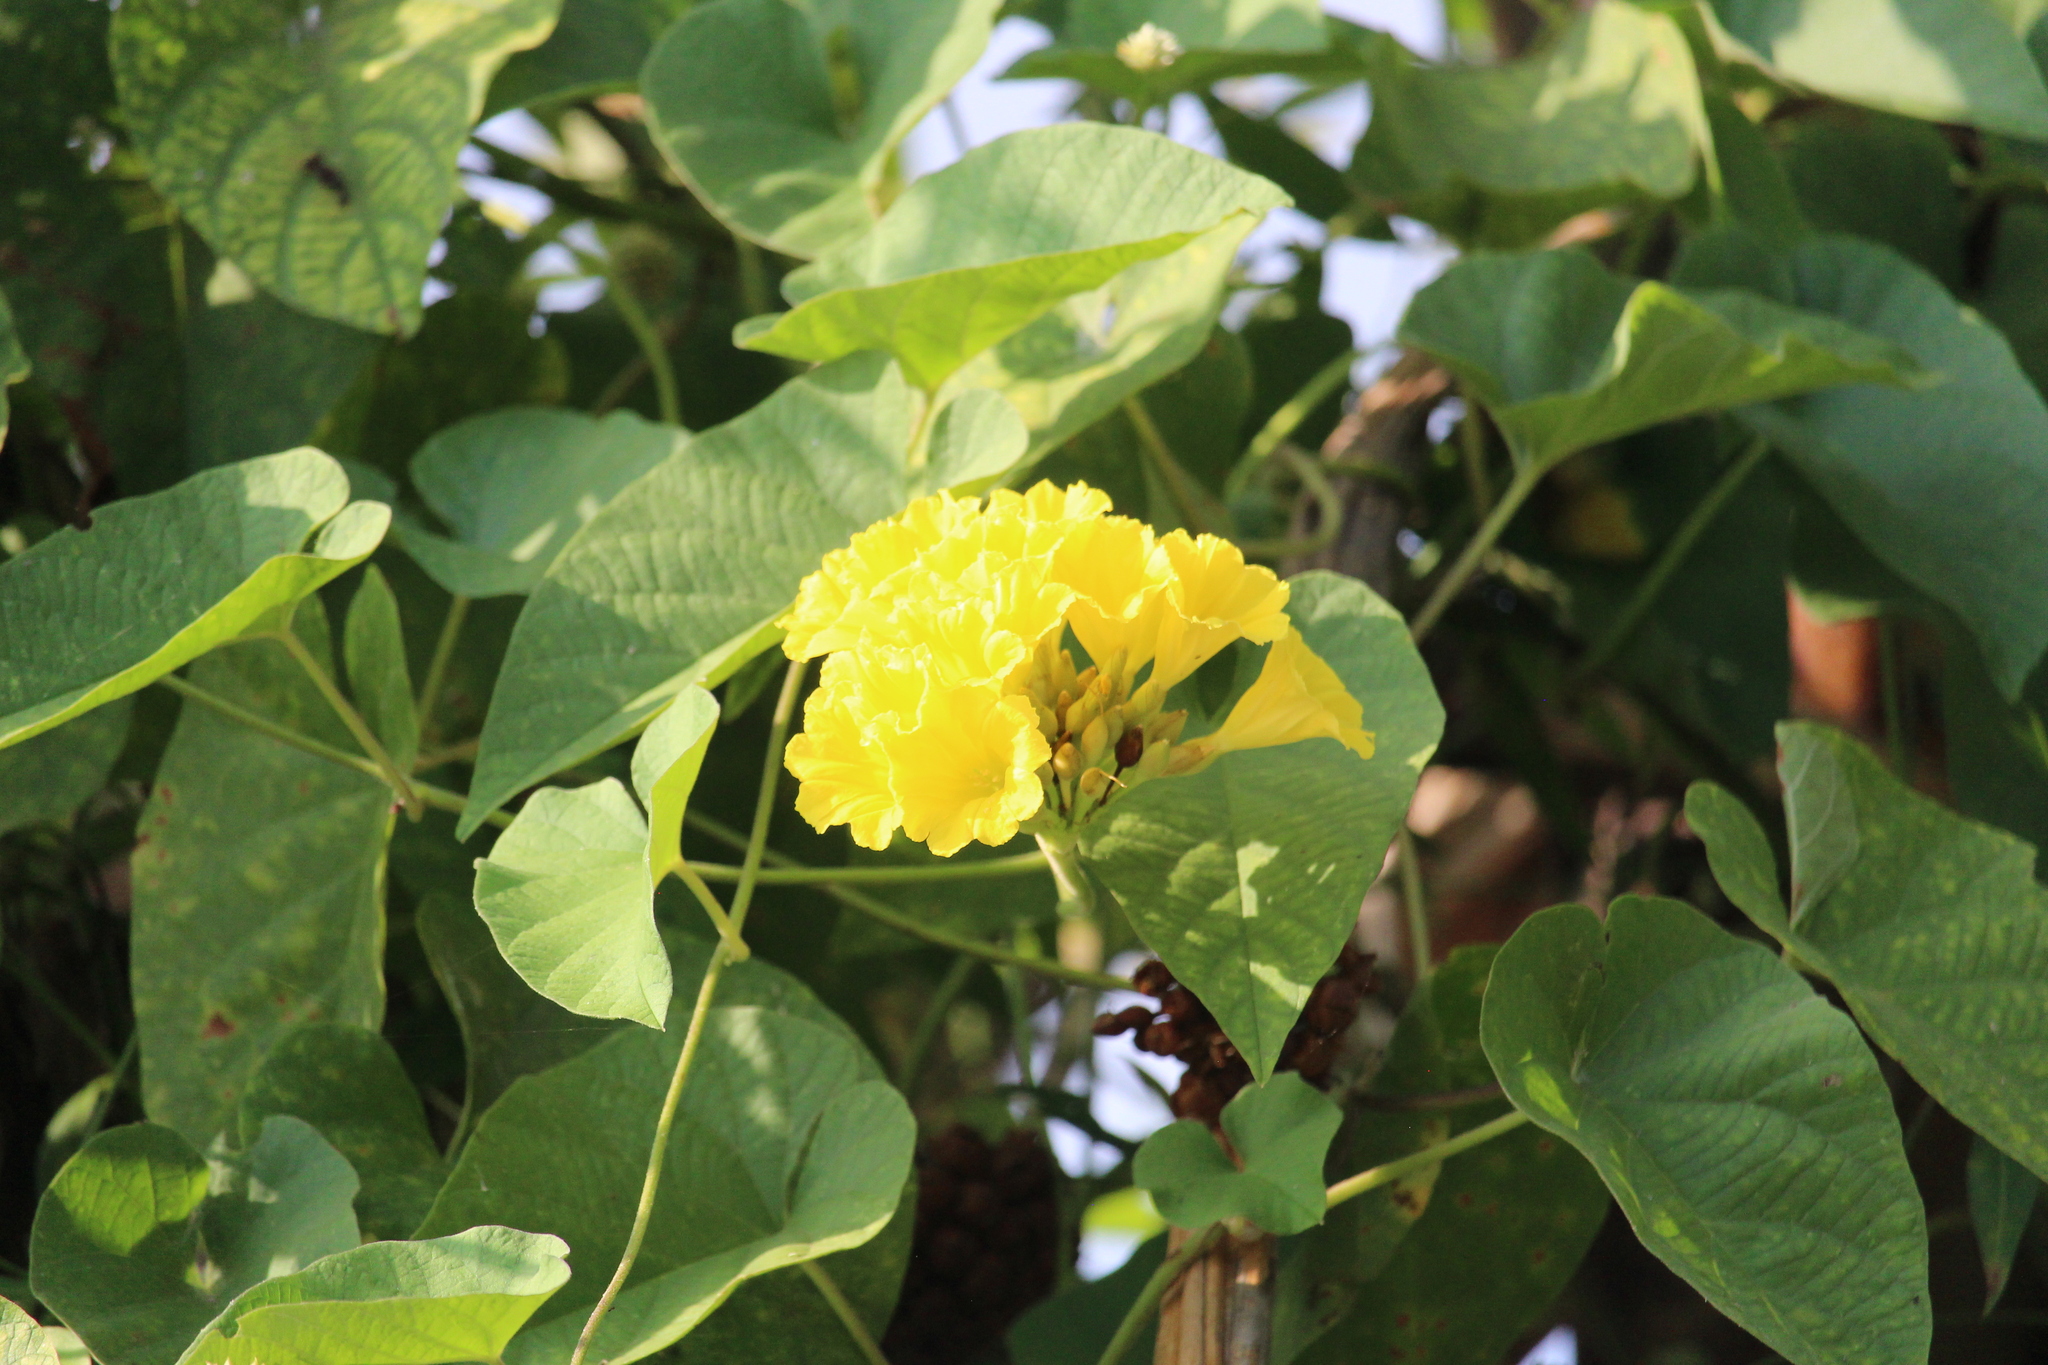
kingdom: Plantae
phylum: Tracheophyta
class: Magnoliopsida
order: Solanales
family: Convolvulaceae
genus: Camonea
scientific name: Camonea umbellata
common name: Hogvine
